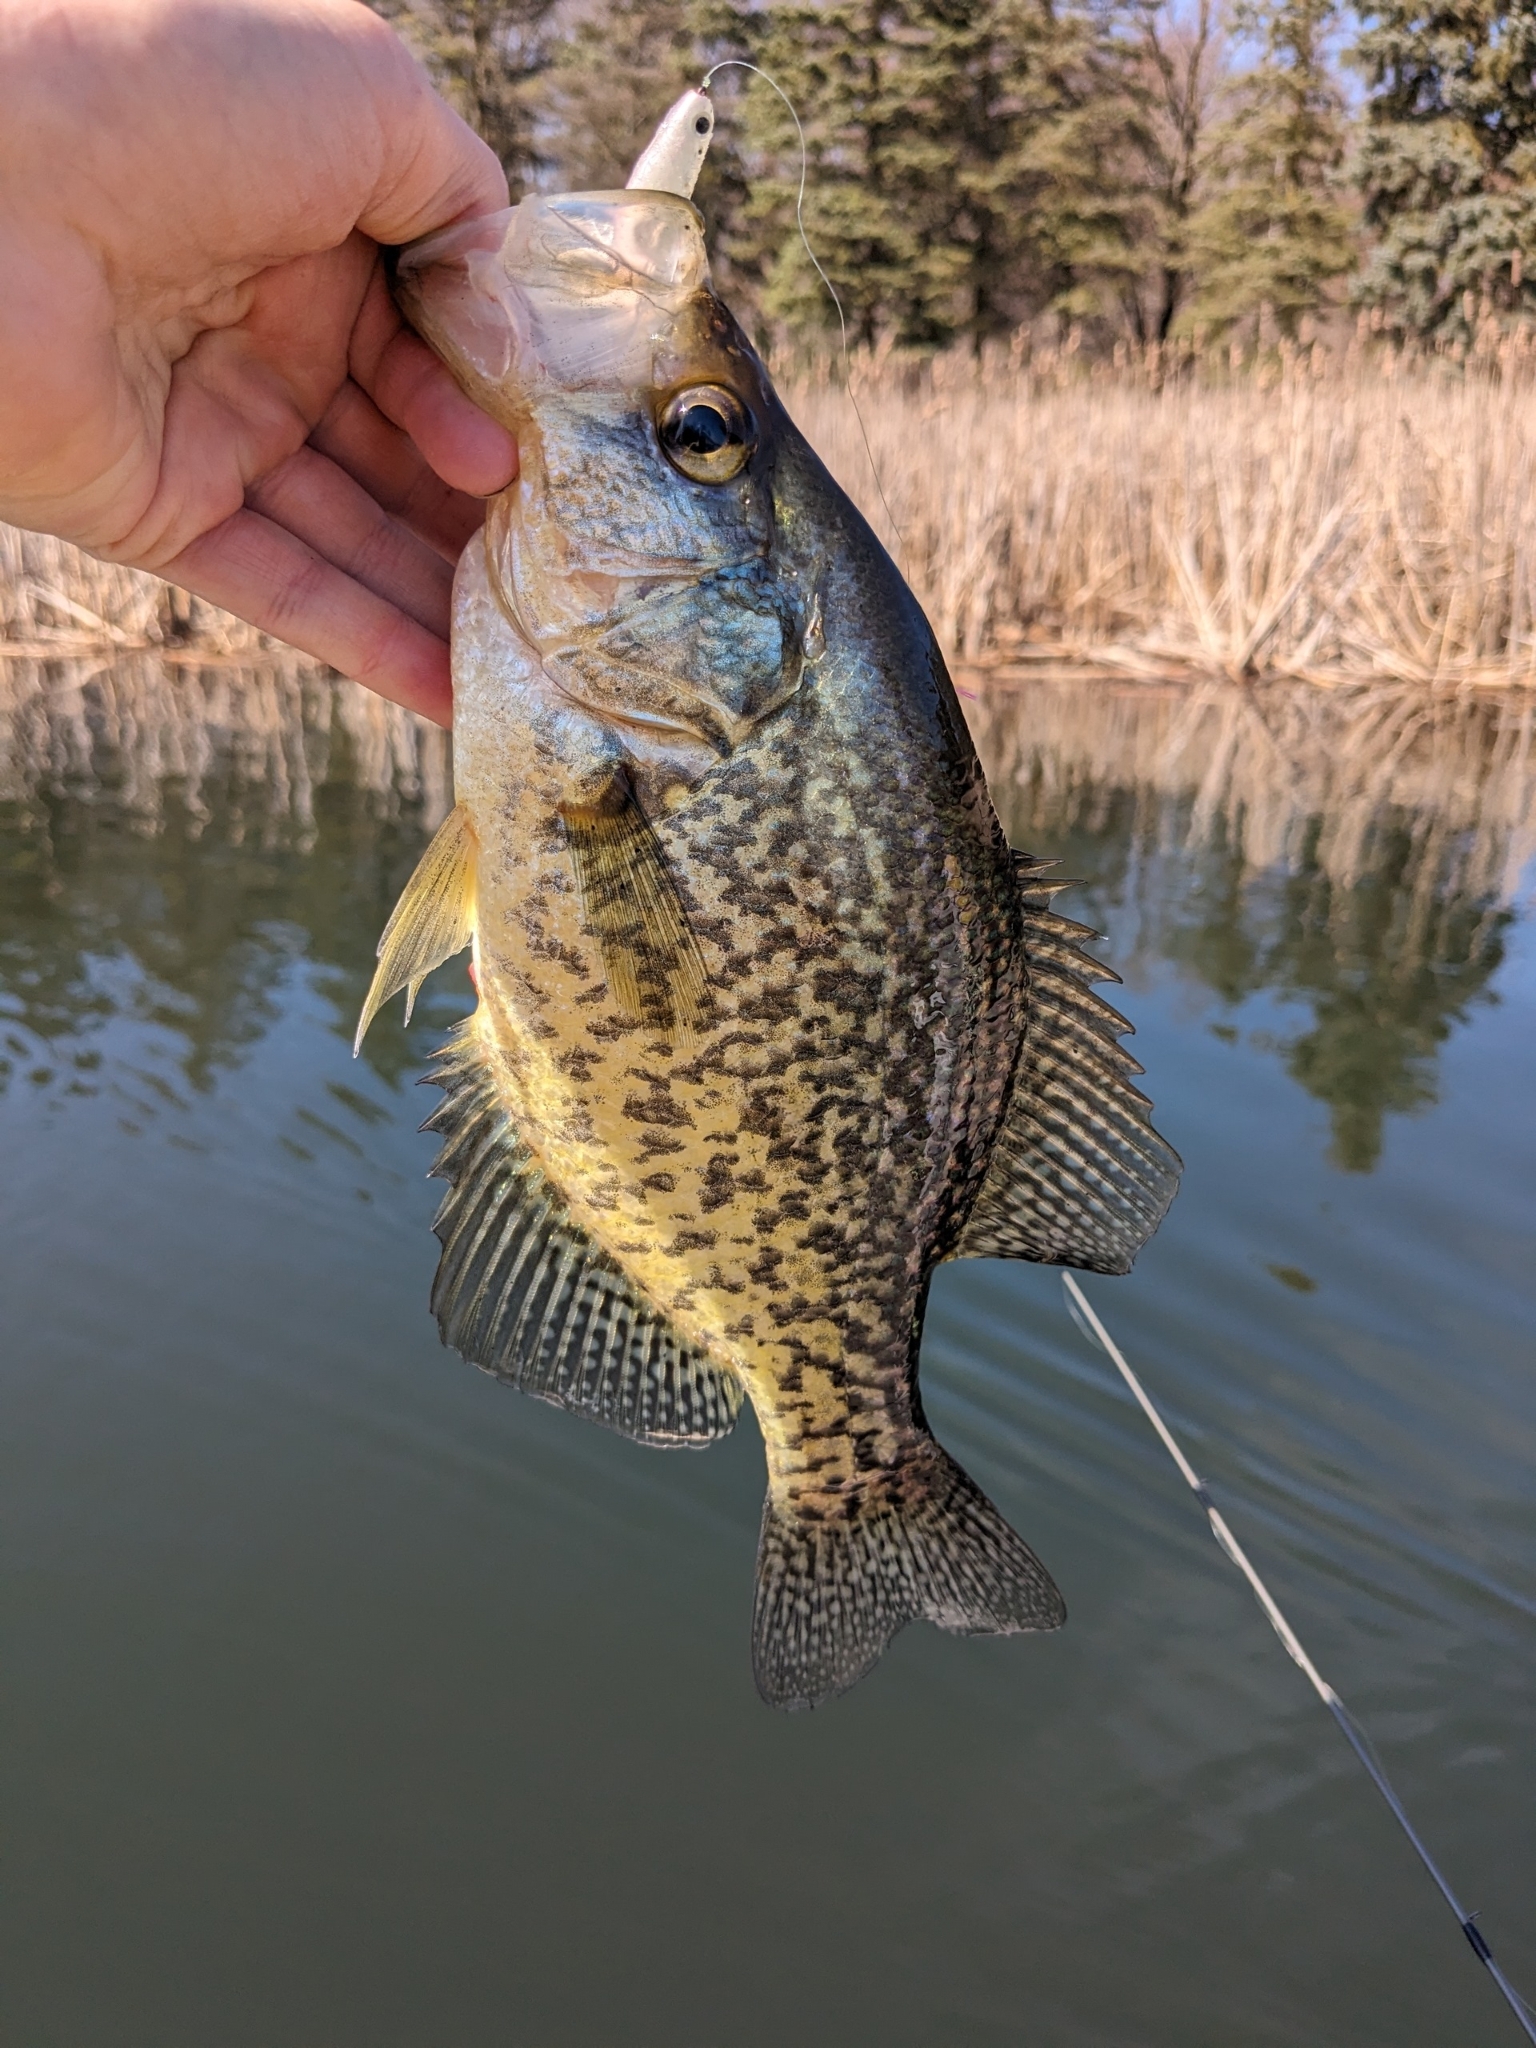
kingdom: Animalia
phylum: Chordata
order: Perciformes
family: Centrarchidae
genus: Pomoxis
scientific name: Pomoxis nigromaculatus
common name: Black crappie
